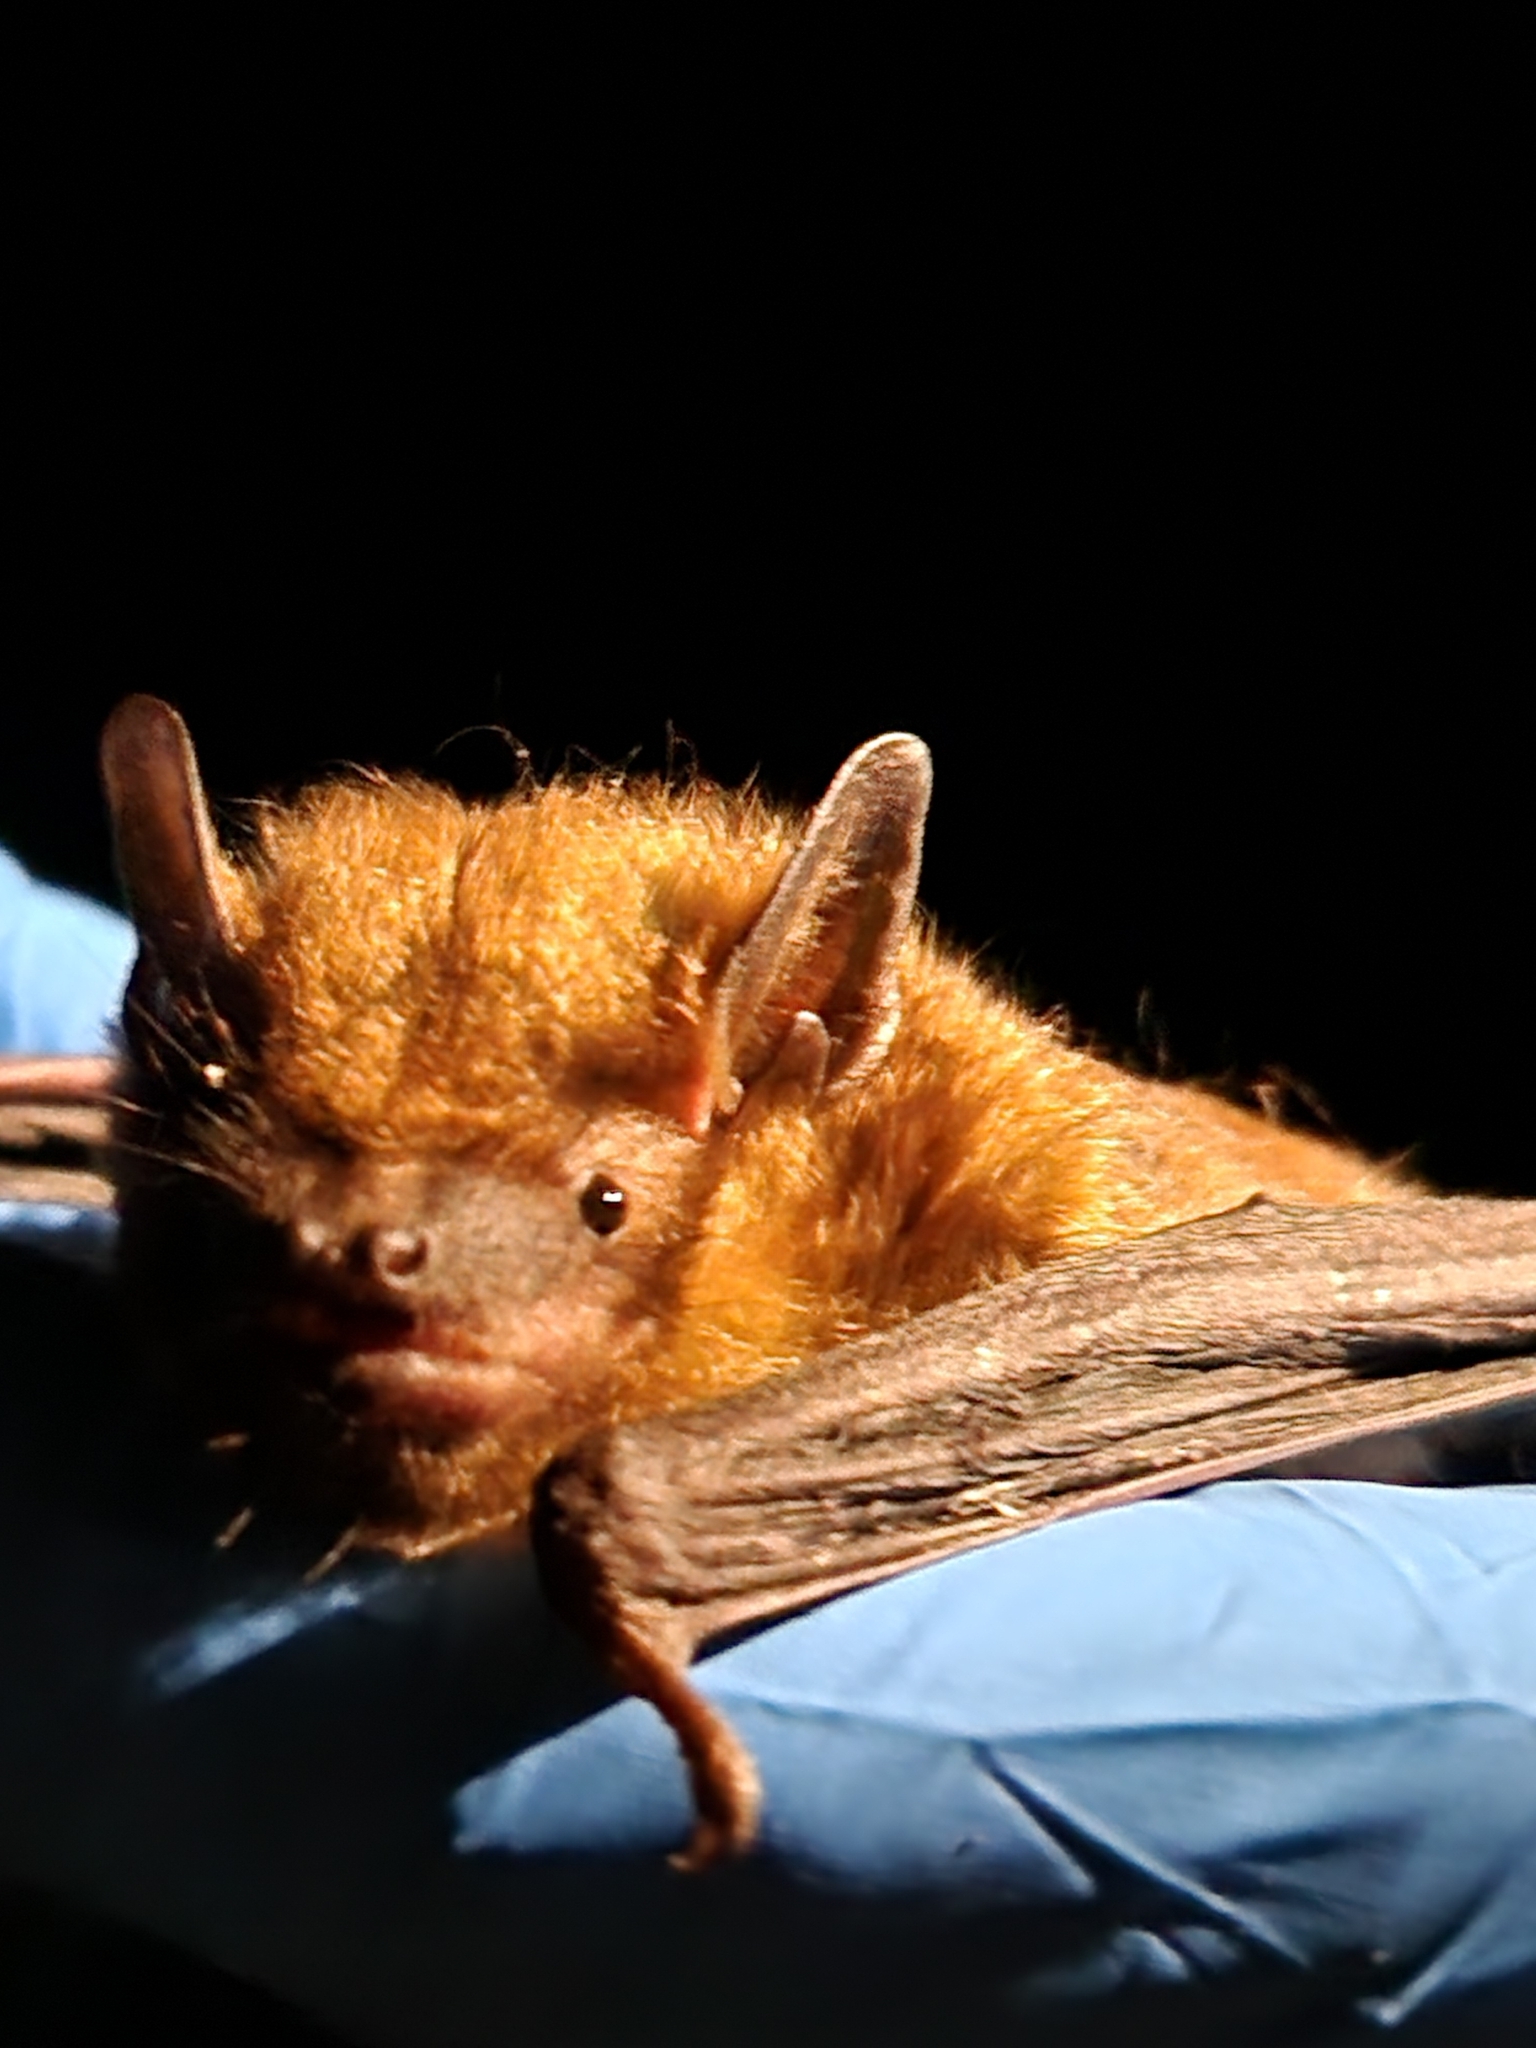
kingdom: Animalia
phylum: Chordata
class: Mammalia
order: Chiroptera
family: Vespertilionidae
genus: Eptesicus
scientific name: Eptesicus fuscus
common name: Big brown bat
